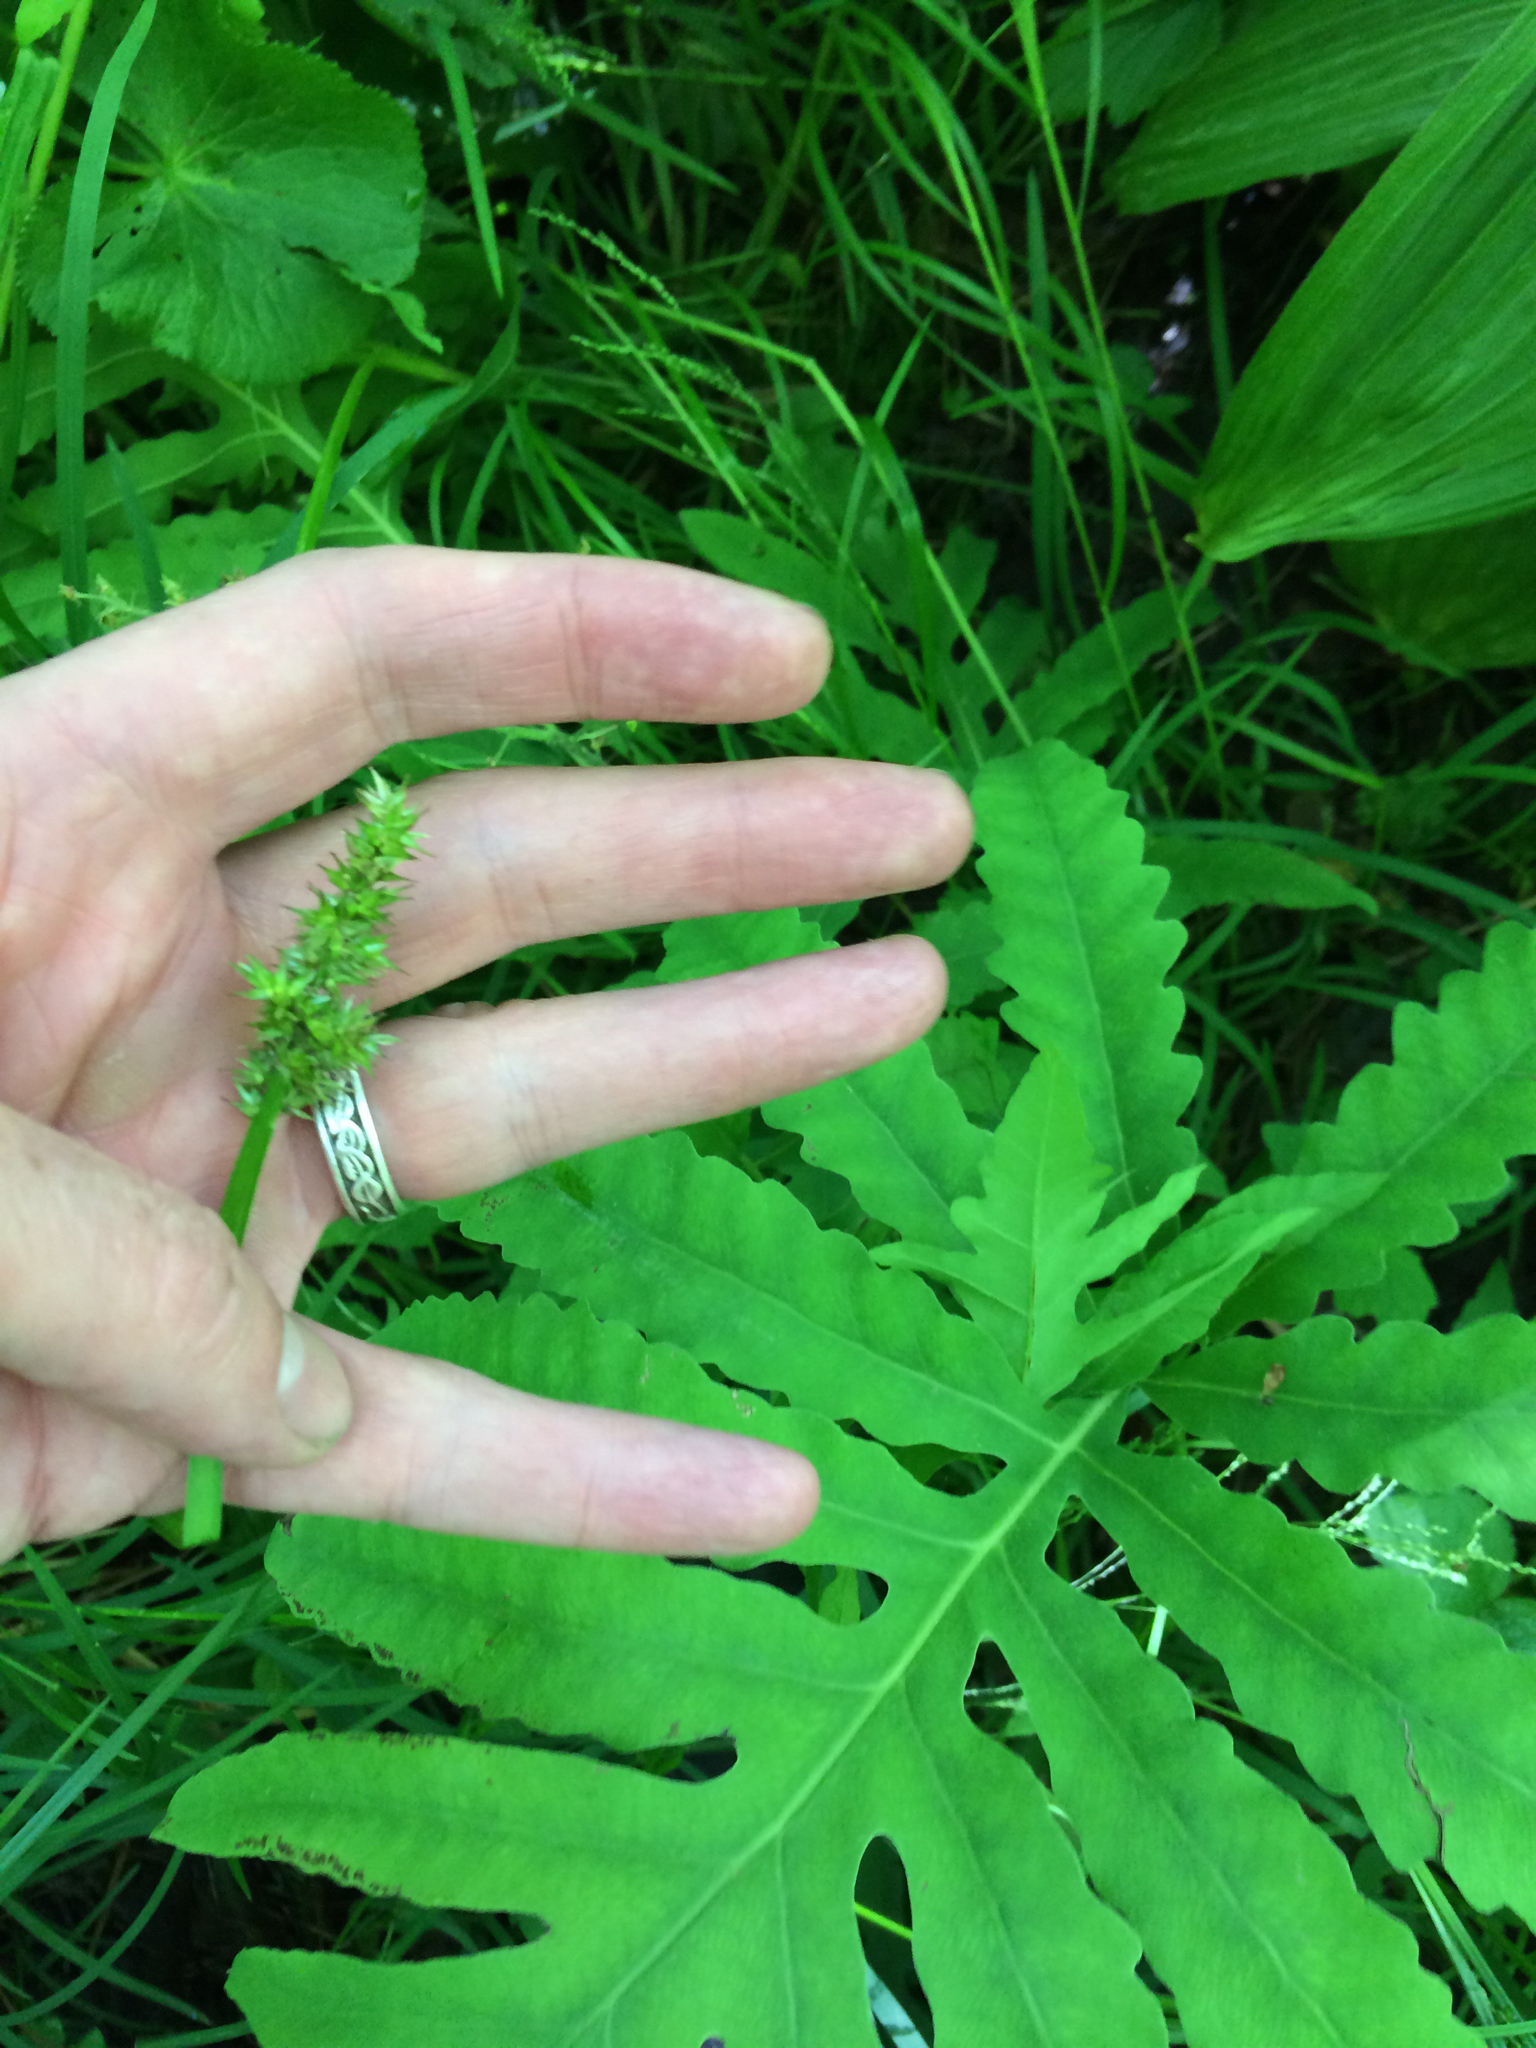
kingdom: Plantae
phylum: Tracheophyta
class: Liliopsida
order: Poales
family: Cyperaceae
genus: Carex
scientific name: Carex stipata
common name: Awl-fruited sedge
